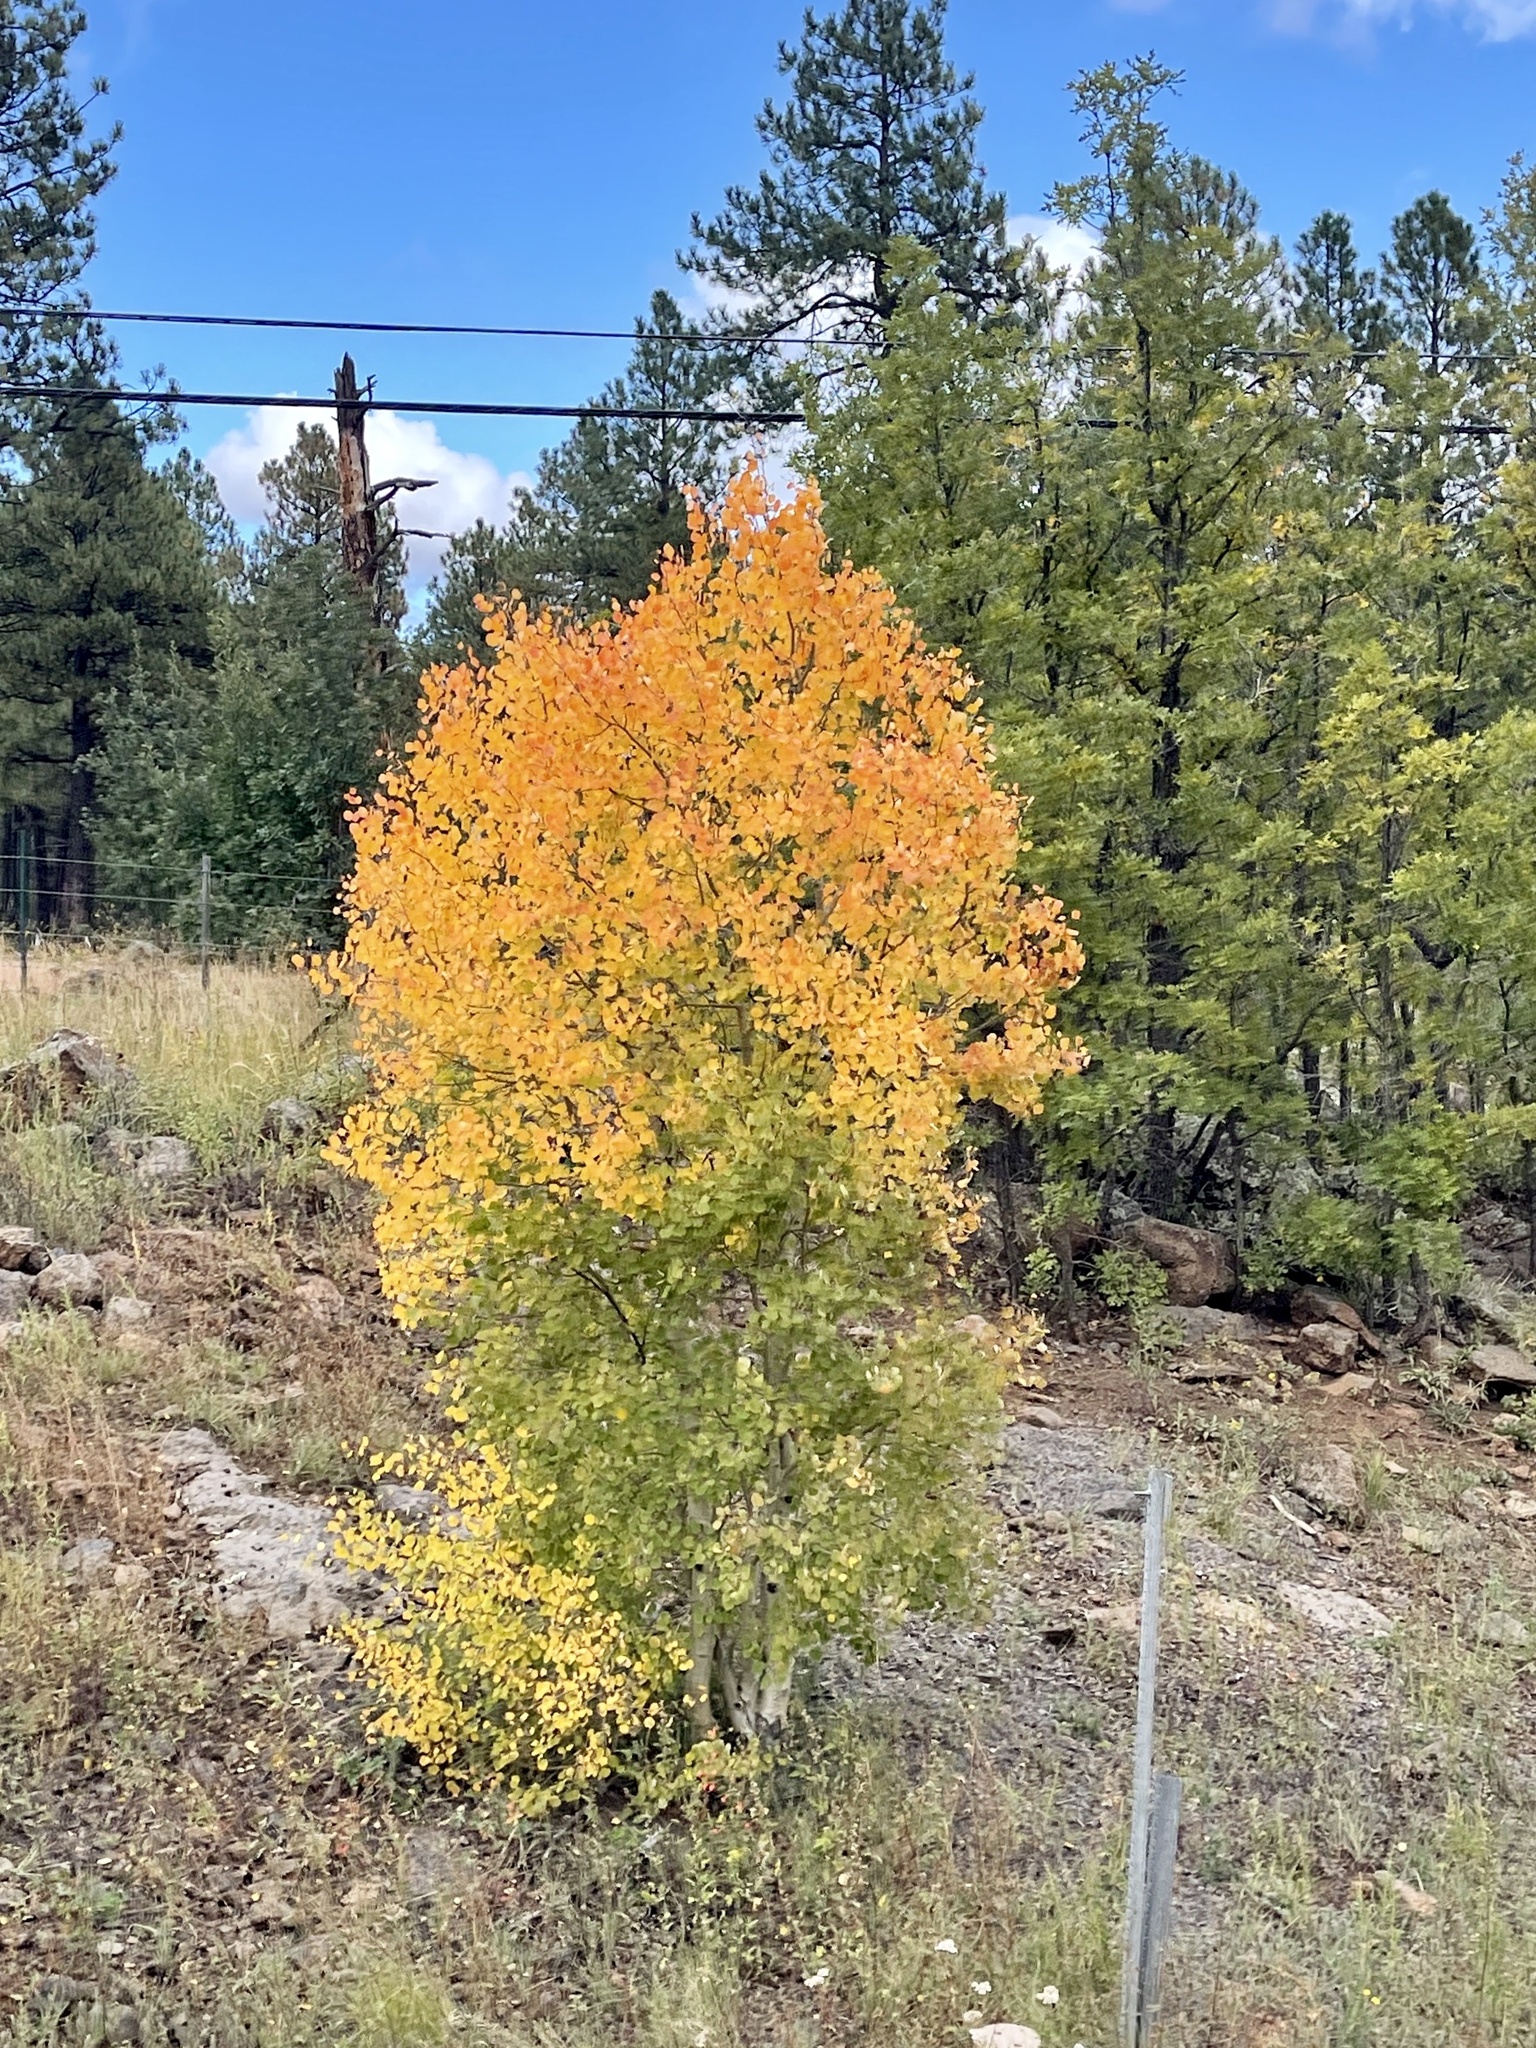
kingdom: Plantae
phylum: Tracheophyta
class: Magnoliopsida
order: Malpighiales
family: Salicaceae
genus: Populus
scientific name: Populus tremuloides
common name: Quaking aspen
